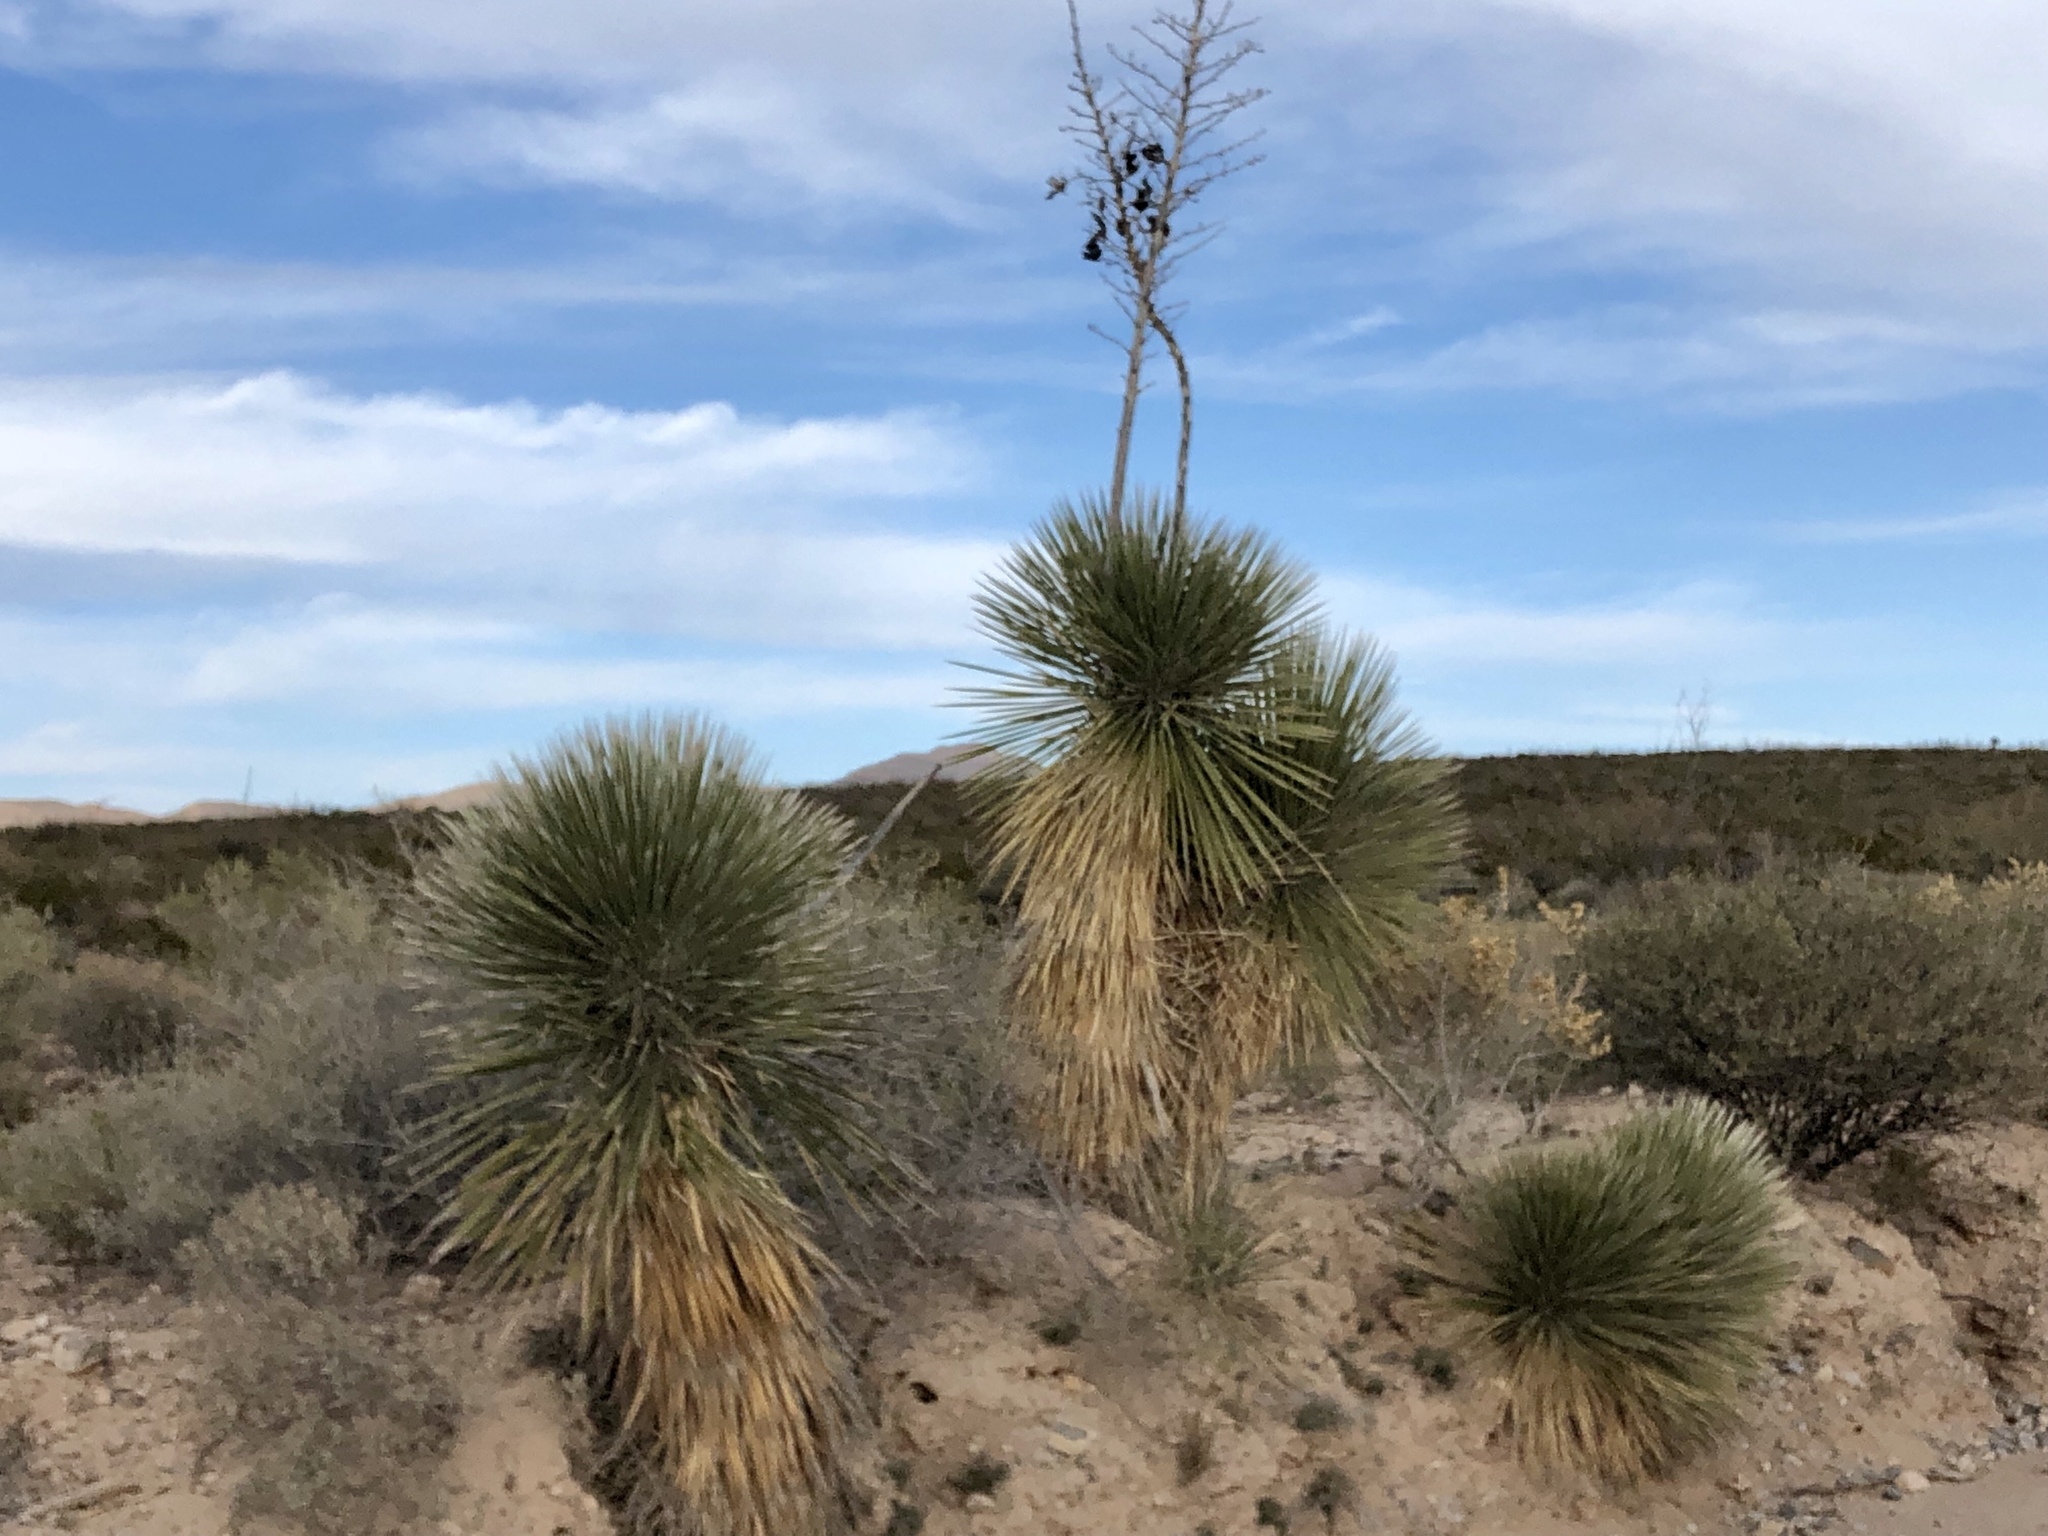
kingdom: Plantae
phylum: Tracheophyta
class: Liliopsida
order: Asparagales
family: Asparagaceae
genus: Yucca
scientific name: Yucca elata
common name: Palmella
